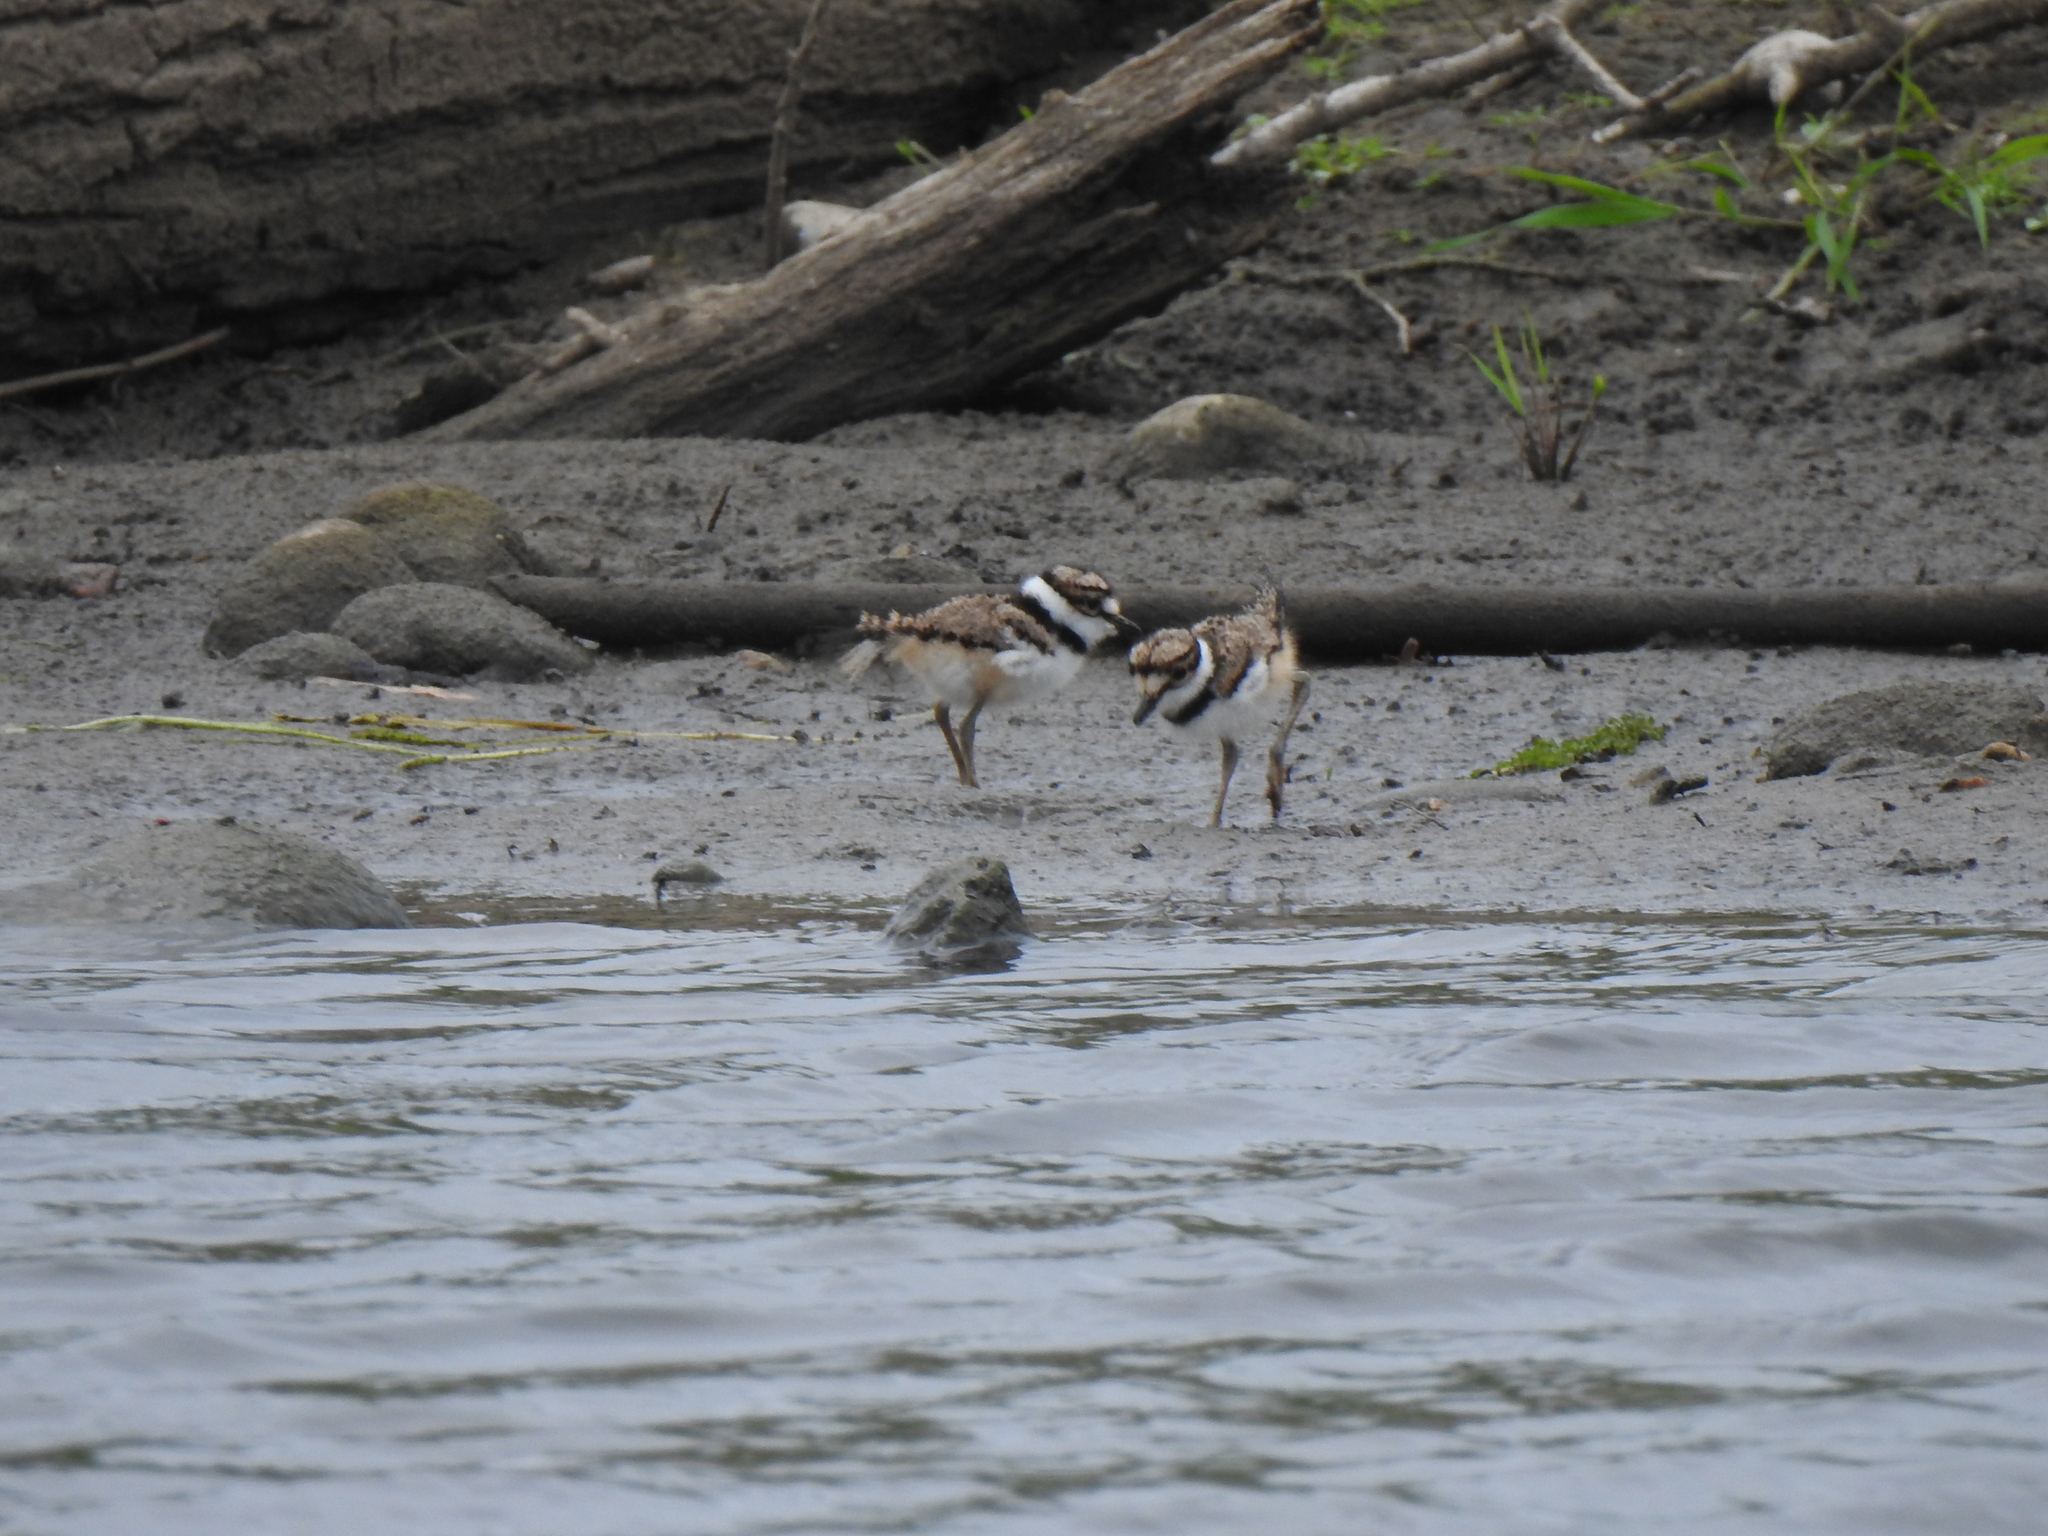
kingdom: Animalia
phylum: Chordata
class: Aves
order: Charadriiformes
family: Charadriidae
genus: Charadrius
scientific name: Charadrius vociferus
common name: Killdeer
